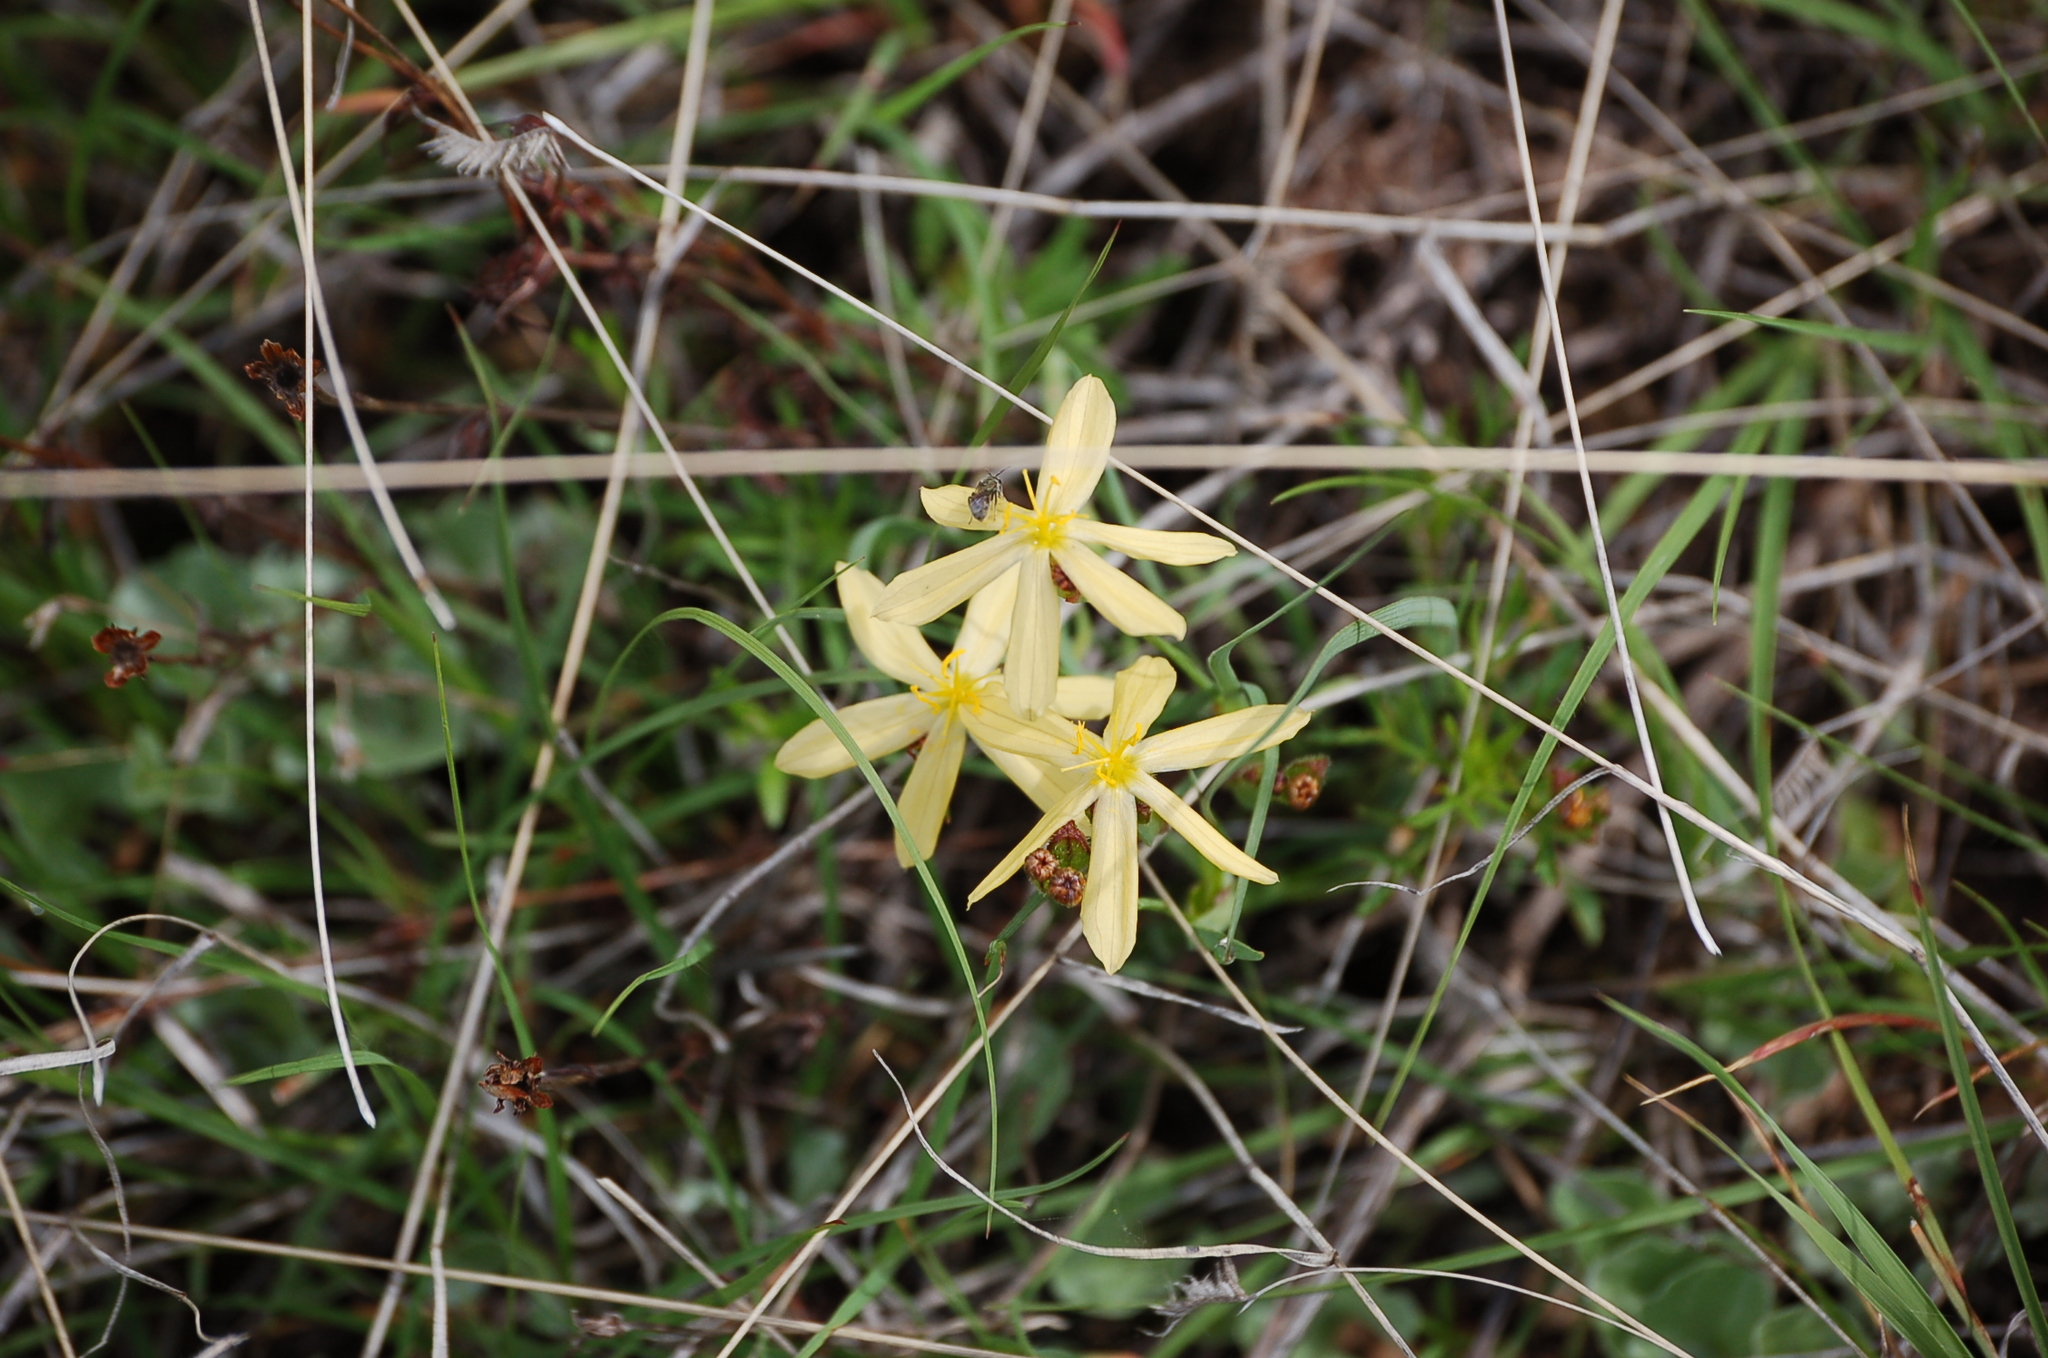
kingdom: Plantae
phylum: Tracheophyta
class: Liliopsida
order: Asparagales
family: Iridaceae
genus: Sisyrinchium
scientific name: Sisyrinchium arizonicum
